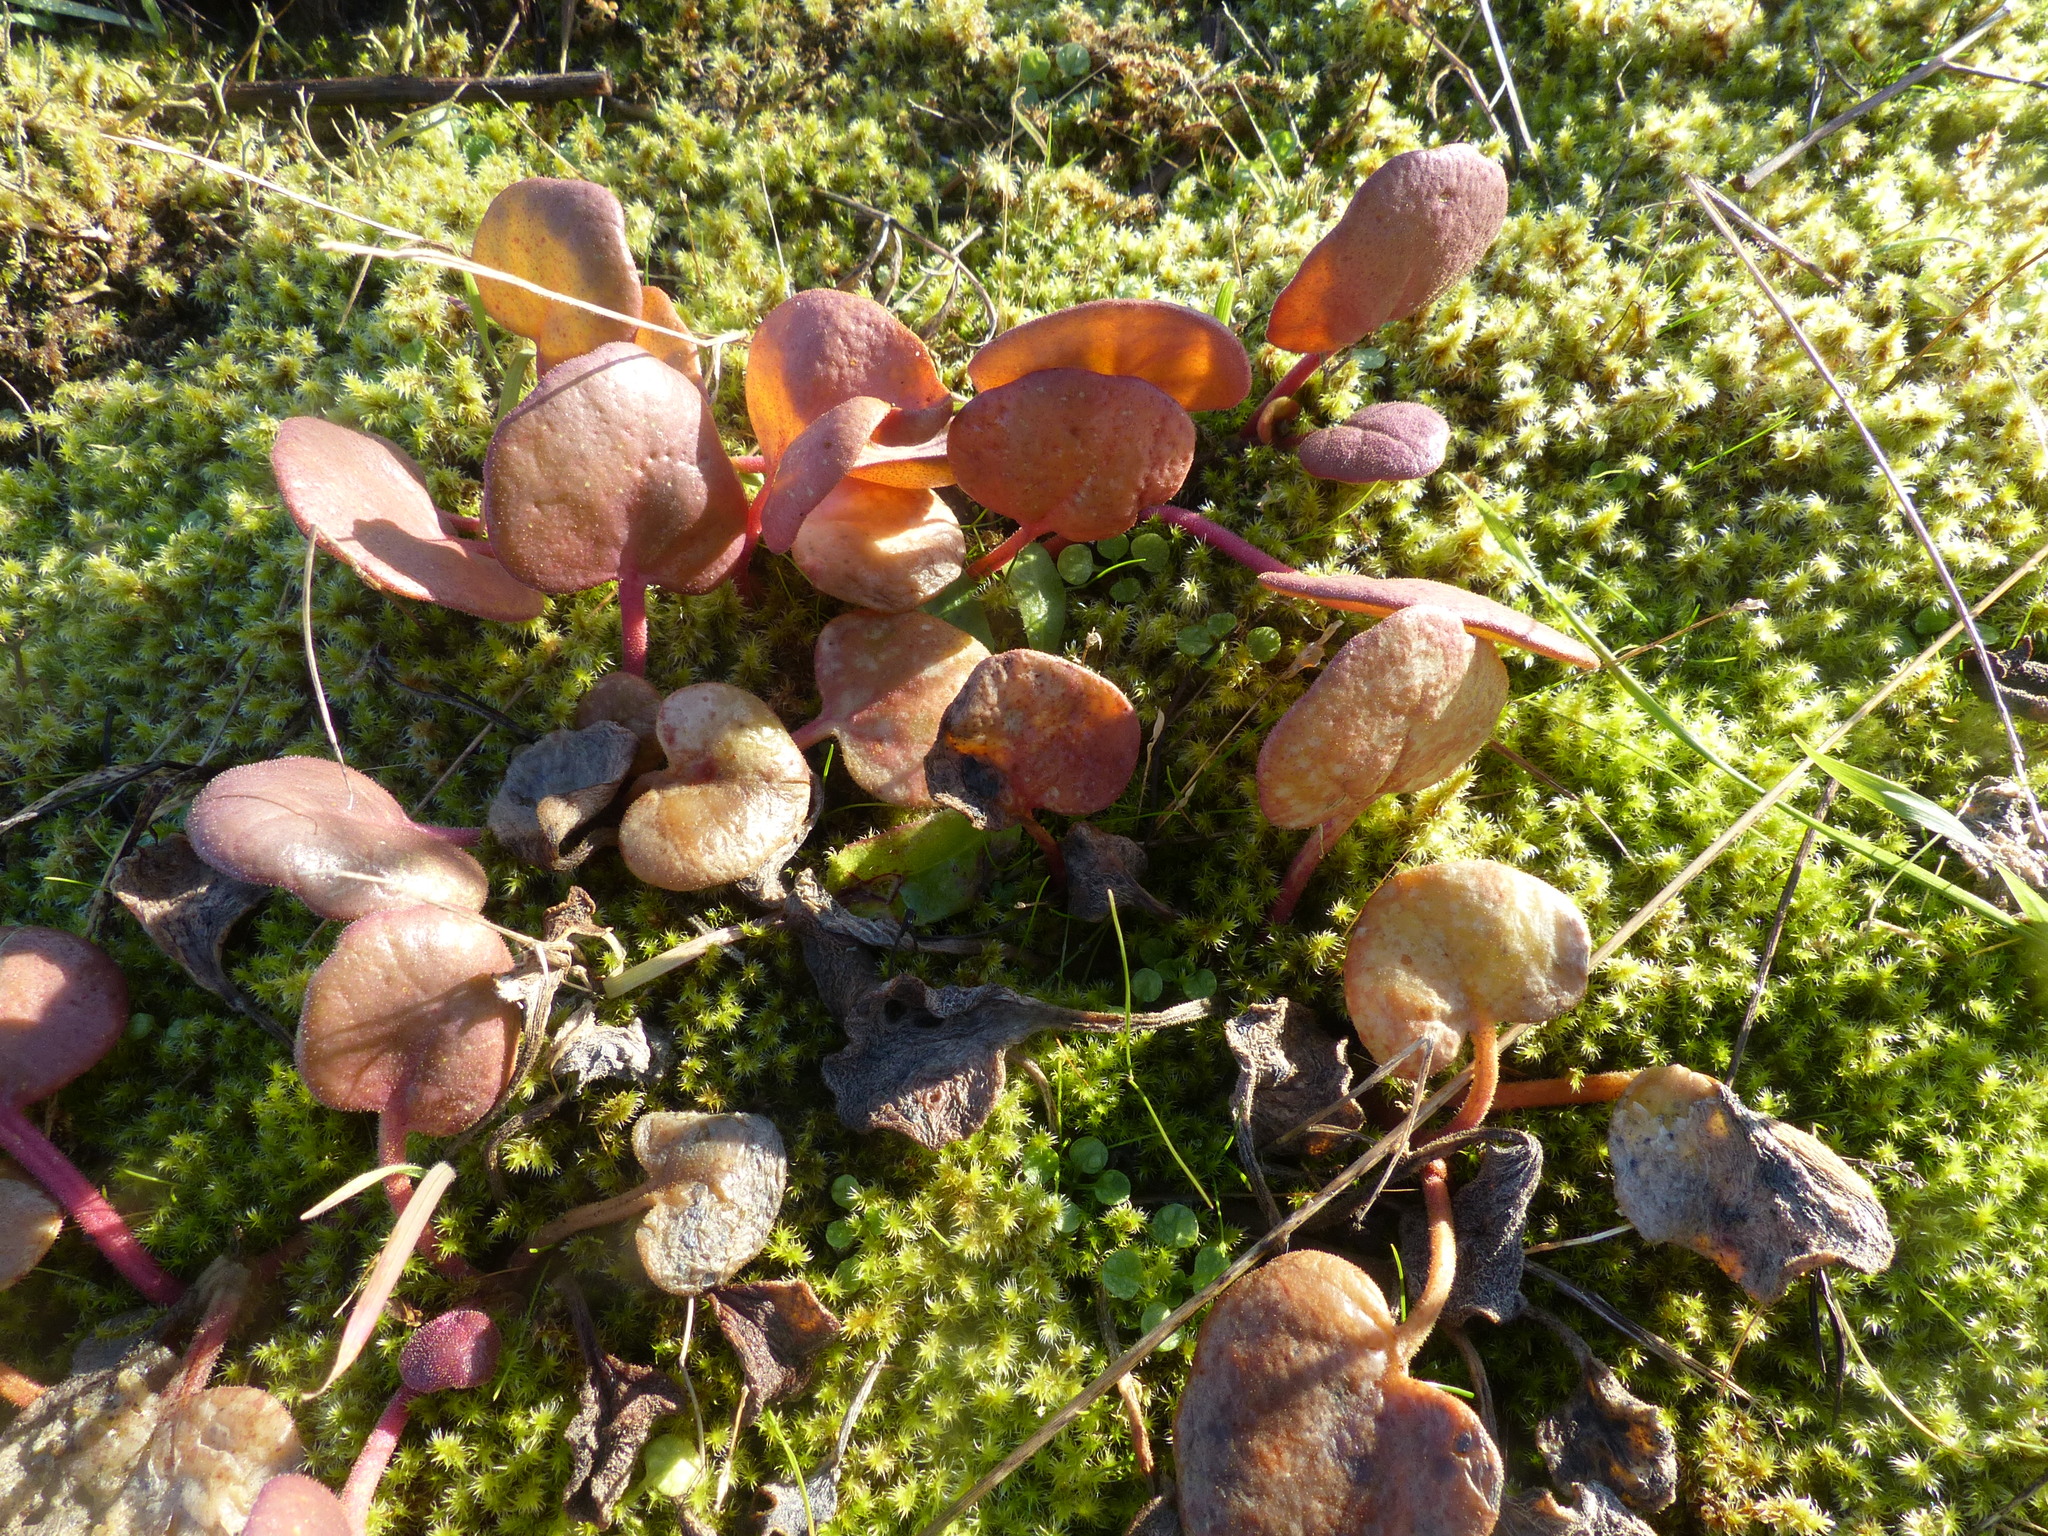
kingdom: Plantae
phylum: Tracheophyta
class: Magnoliopsida
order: Caryophyllales
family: Nyctaginaceae
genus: Abronia
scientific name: Abronia latifolia
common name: Yellow sand-verbena
